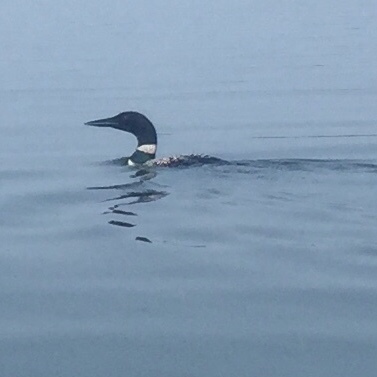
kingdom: Animalia
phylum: Chordata
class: Aves
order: Gaviiformes
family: Gaviidae
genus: Gavia
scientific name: Gavia immer
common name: Common loon
